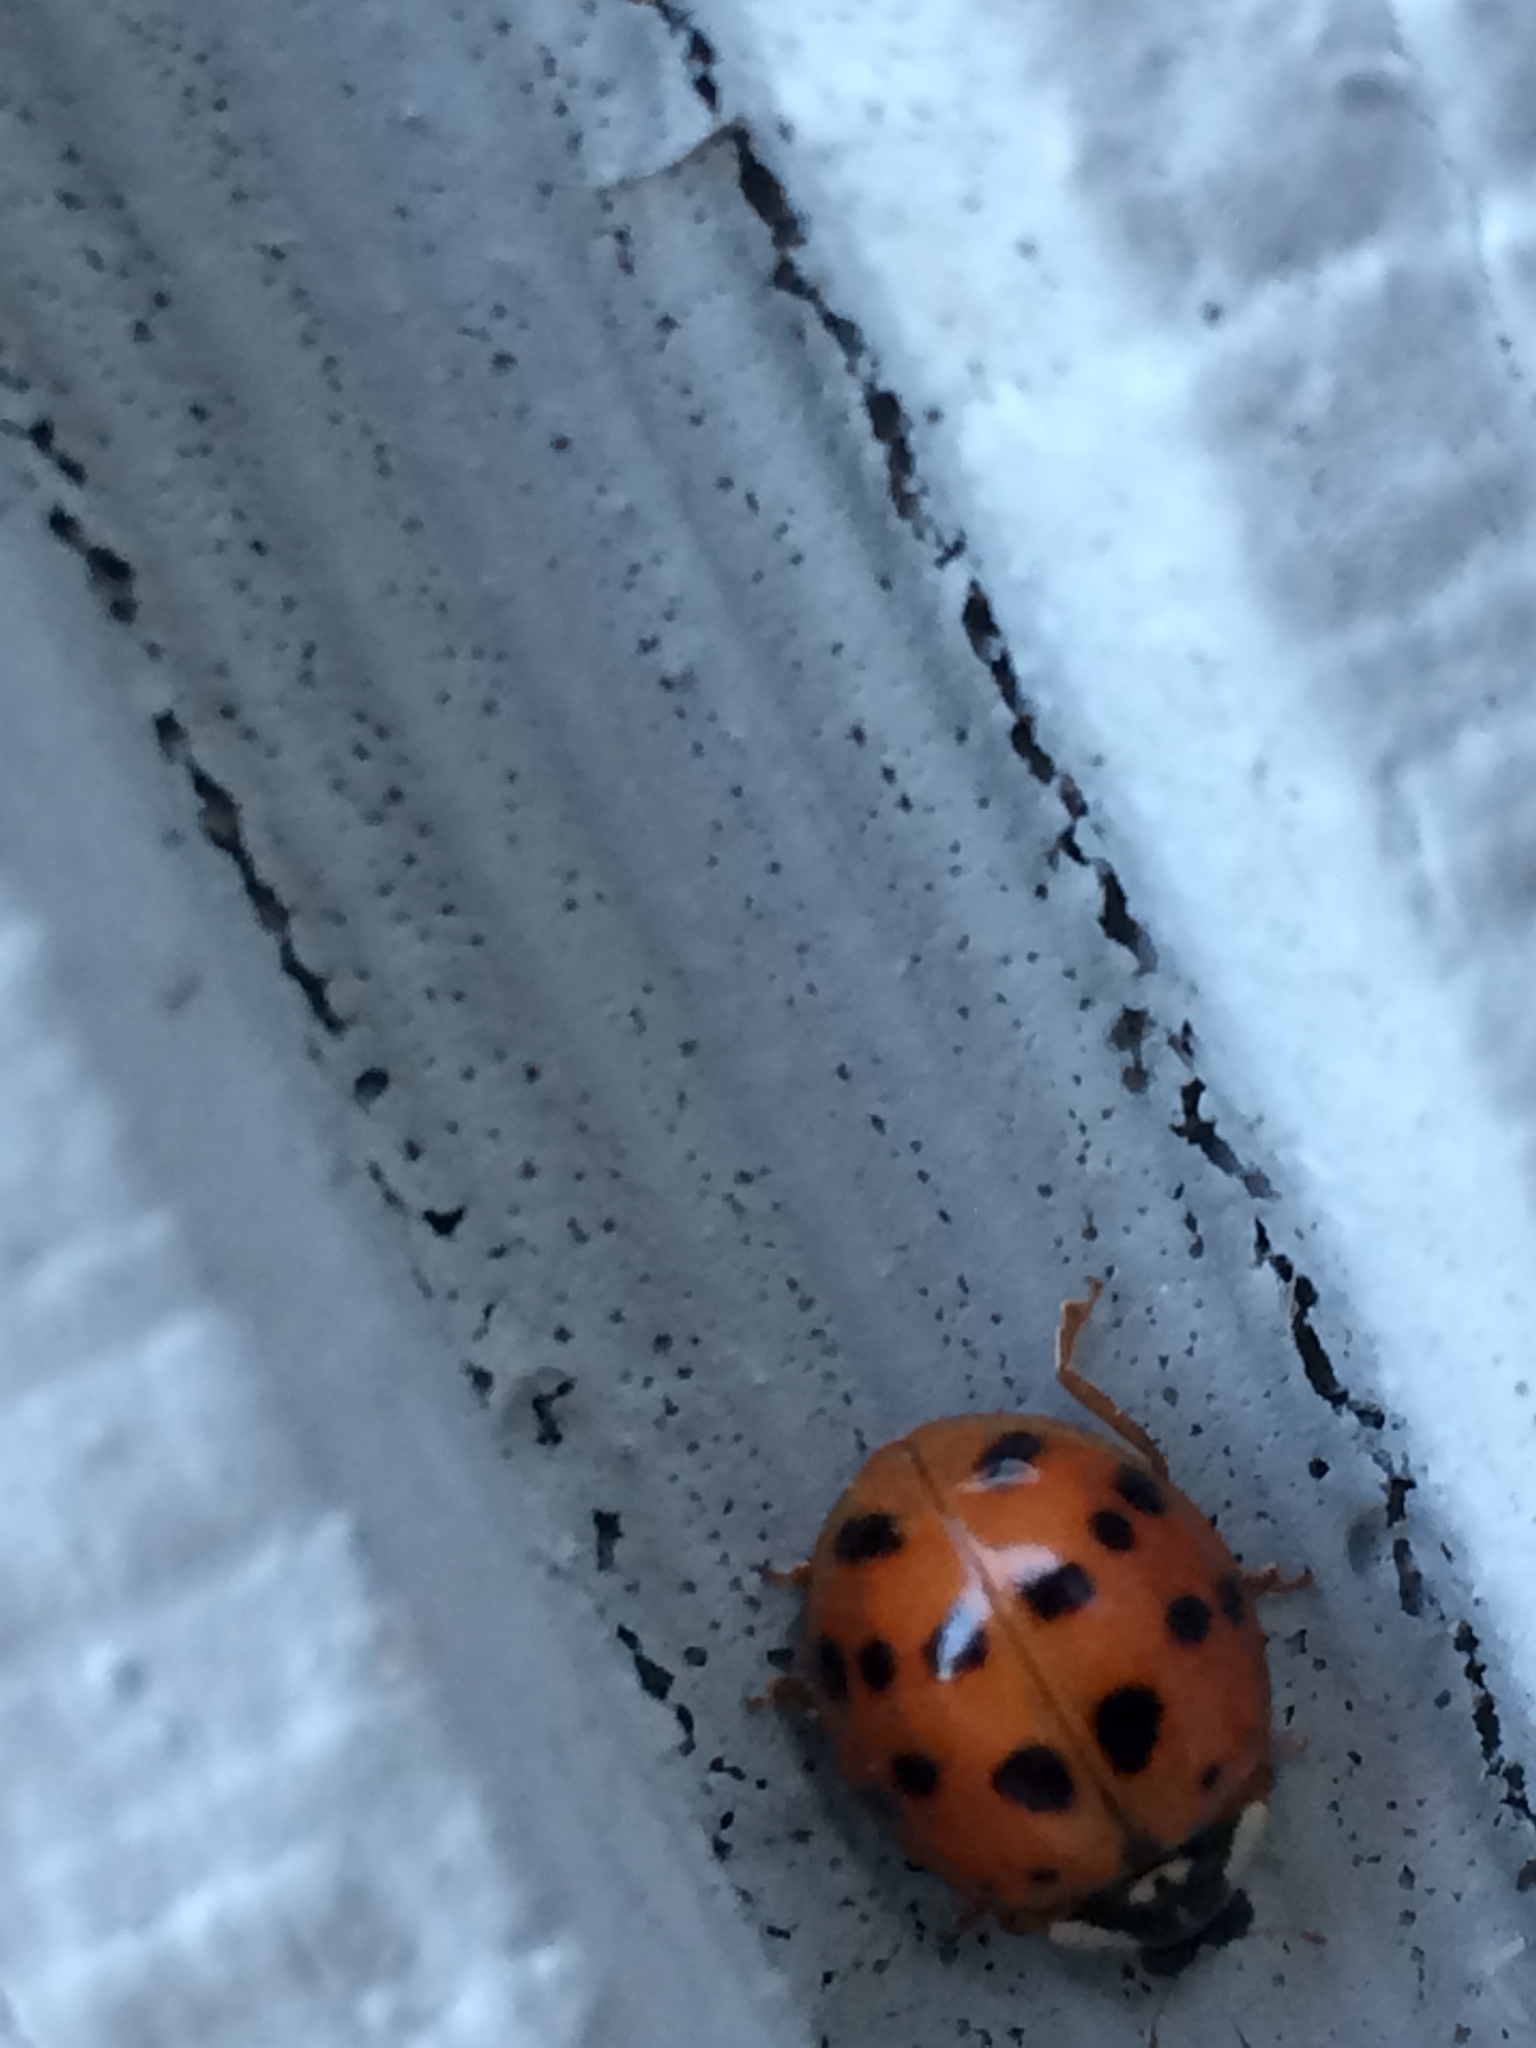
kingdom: Animalia
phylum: Arthropoda
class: Insecta
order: Coleoptera
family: Coccinellidae
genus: Harmonia
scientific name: Harmonia axyridis
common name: Harlequin ladybird
